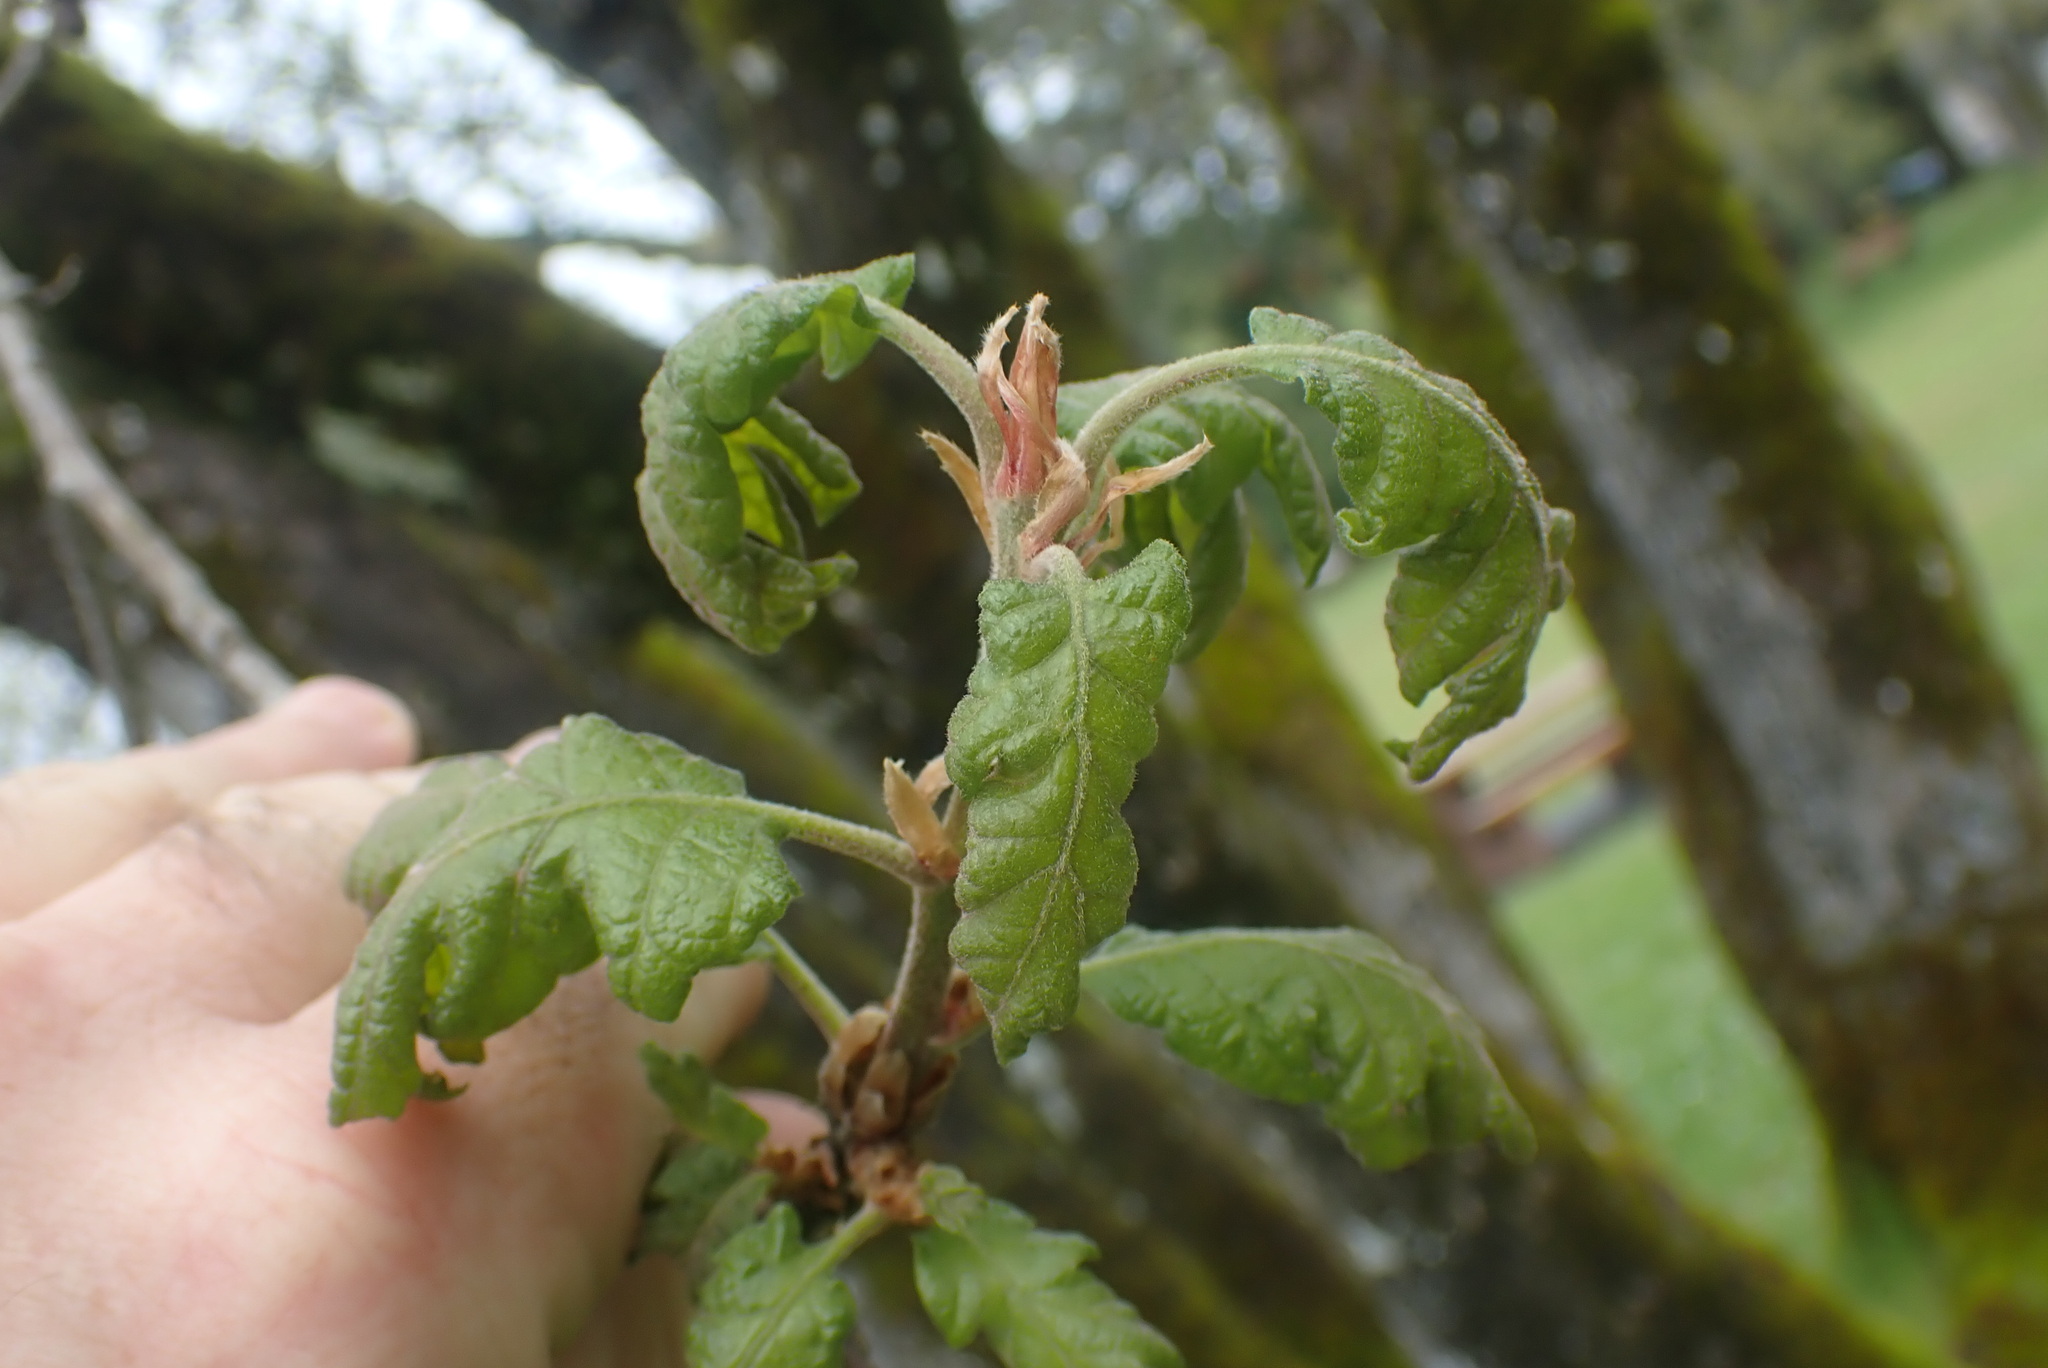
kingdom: Plantae
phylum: Tracheophyta
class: Magnoliopsida
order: Fagales
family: Fagaceae
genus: Quercus
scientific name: Quercus garryana
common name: Garry oak
